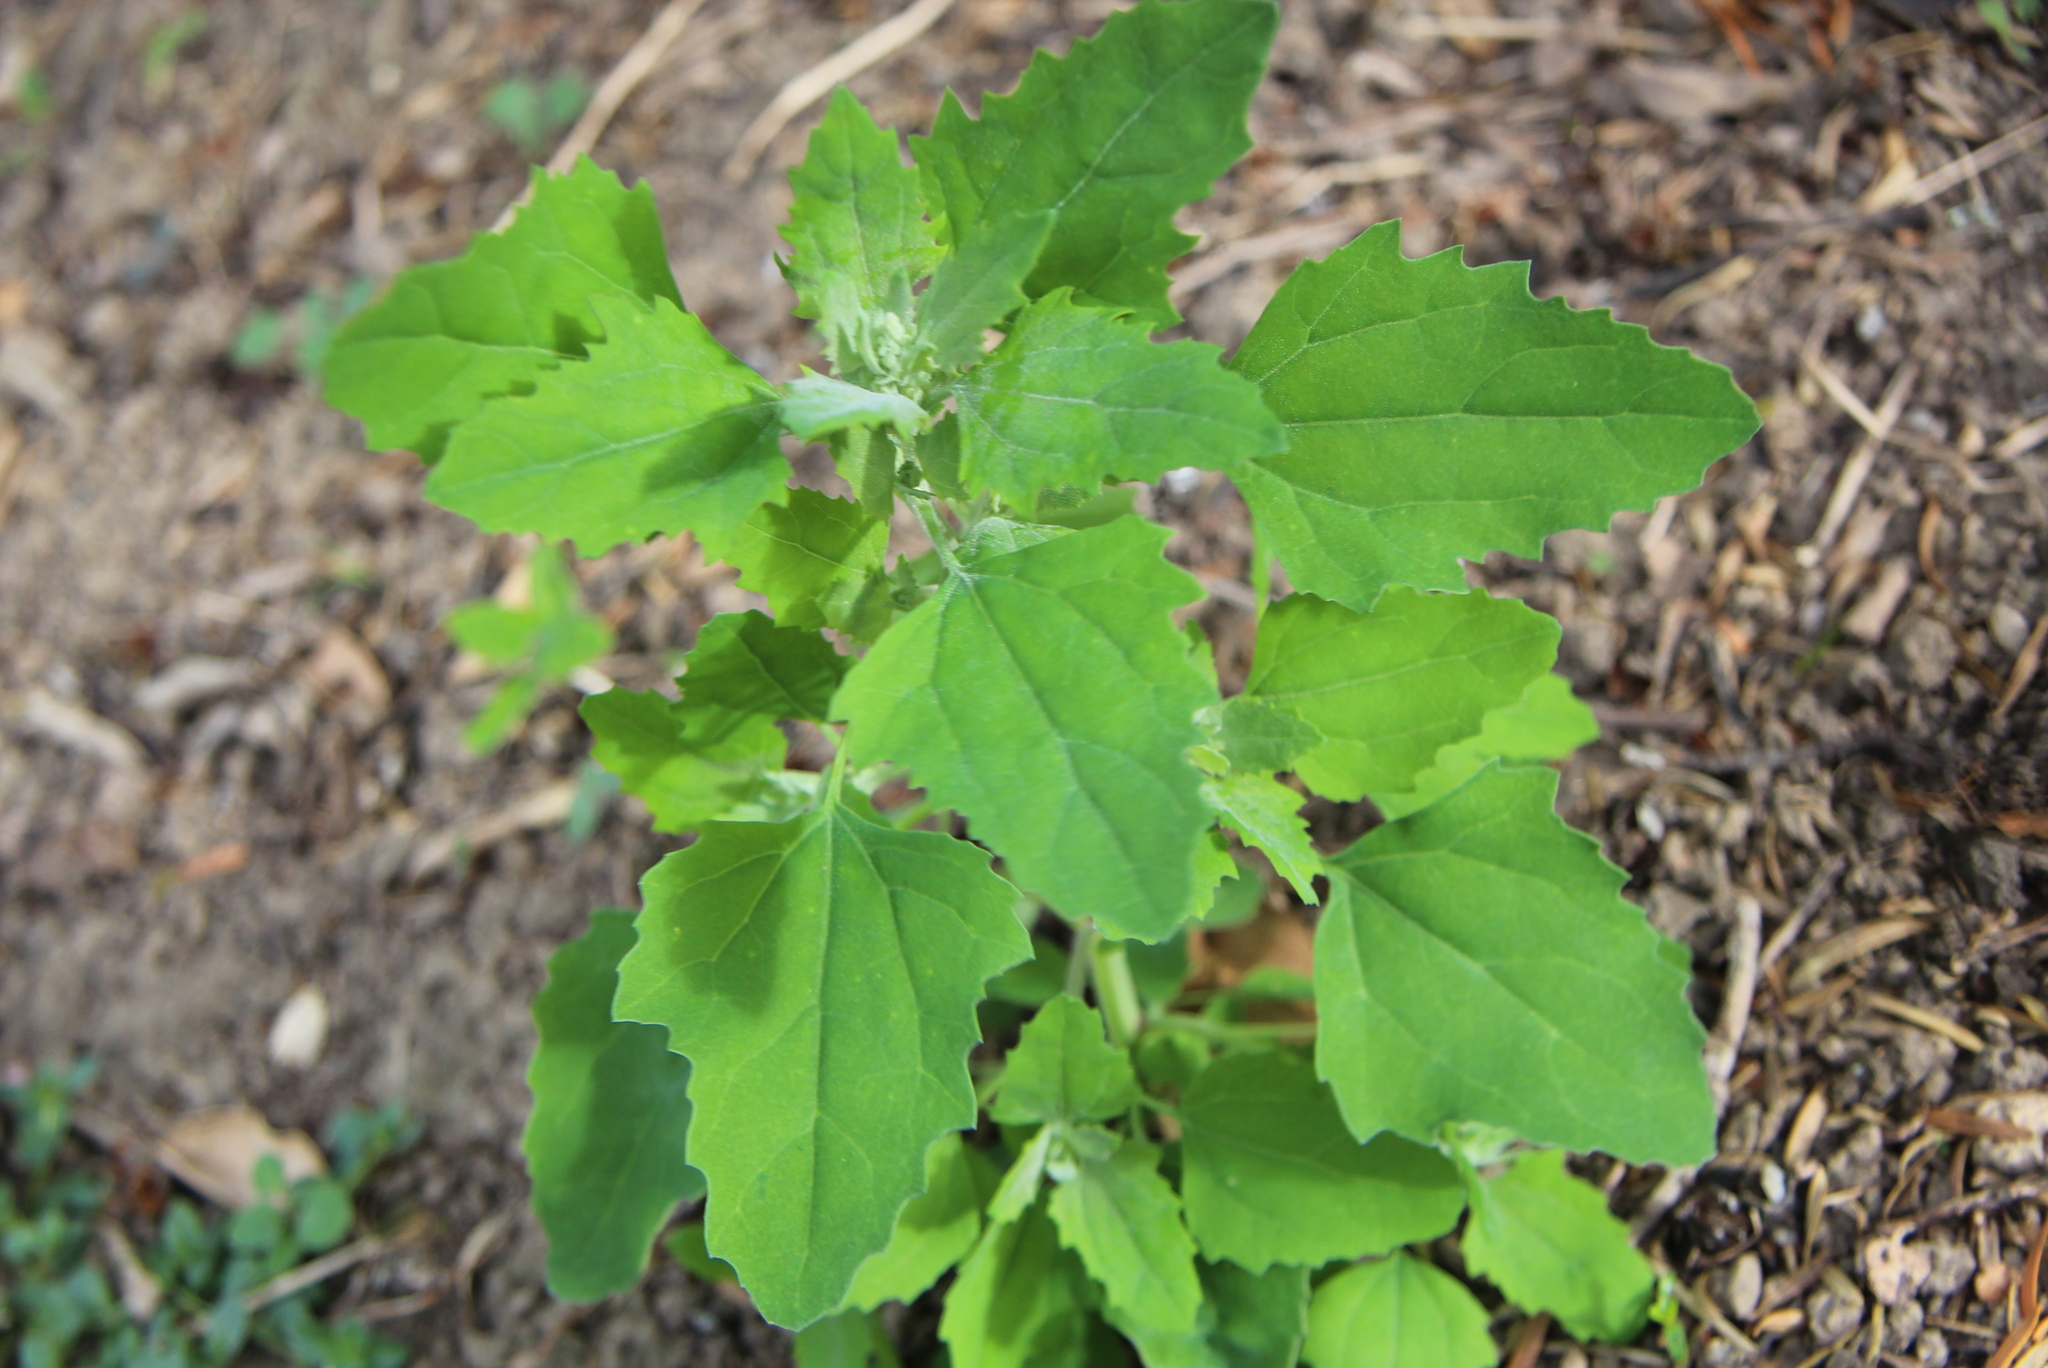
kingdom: Plantae
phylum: Tracheophyta
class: Magnoliopsida
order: Caryophyllales
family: Amaranthaceae
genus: Chenopodium
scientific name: Chenopodium album
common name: Fat-hen
